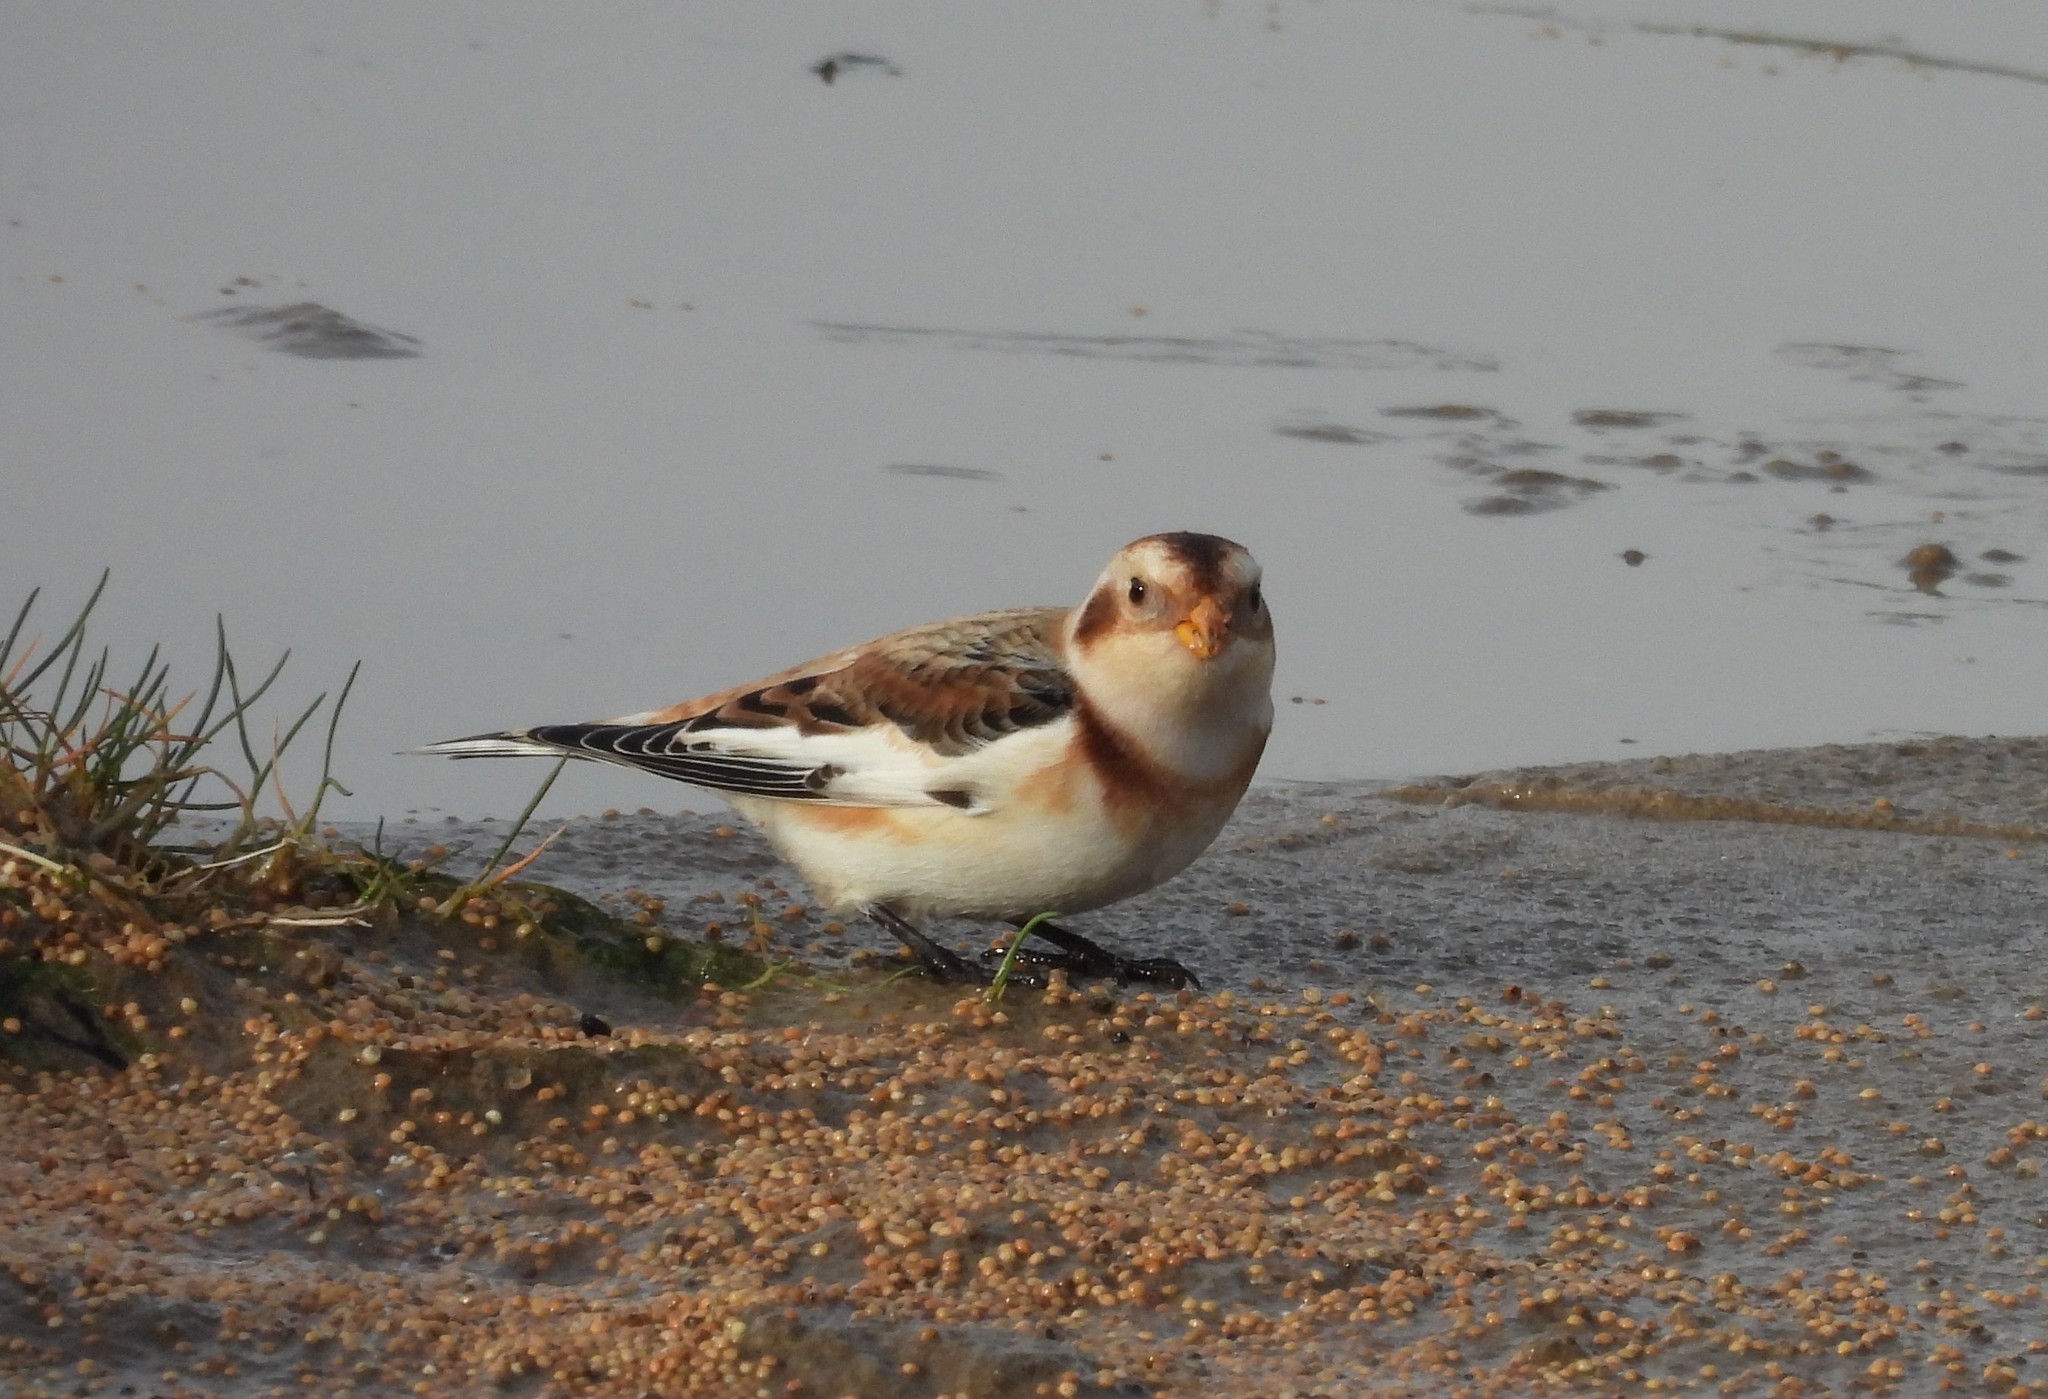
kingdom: Animalia
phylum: Chordata
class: Aves
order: Passeriformes
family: Calcariidae
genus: Plectrophenax
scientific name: Plectrophenax nivalis
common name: Snow bunting
